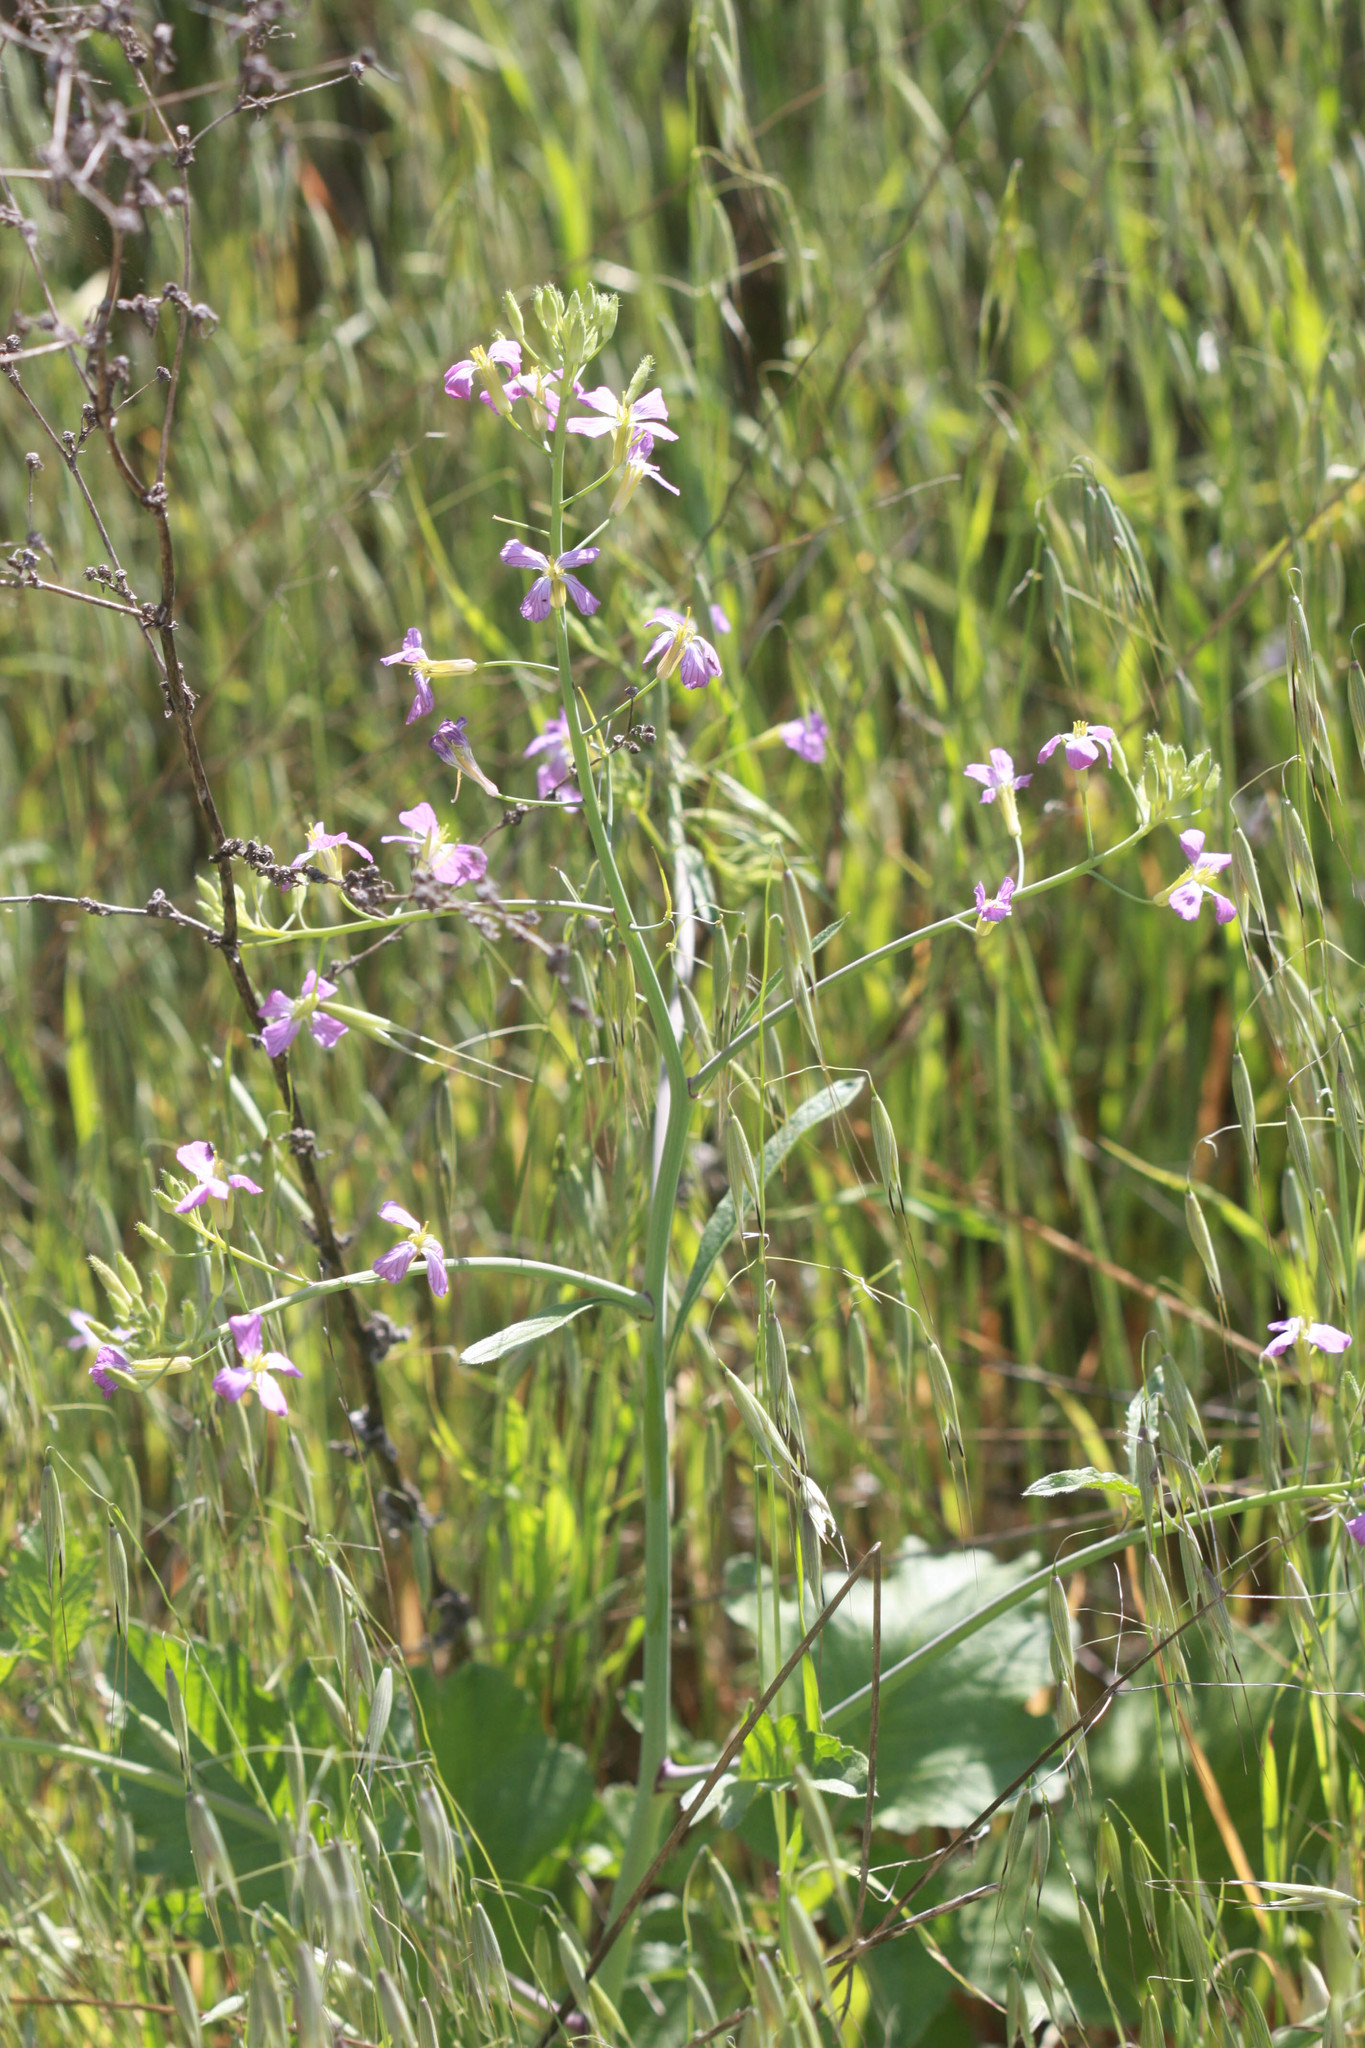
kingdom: Plantae
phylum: Tracheophyta
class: Magnoliopsida
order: Brassicales
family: Brassicaceae
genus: Raphanus
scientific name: Raphanus sativus
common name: Cultivated radish
